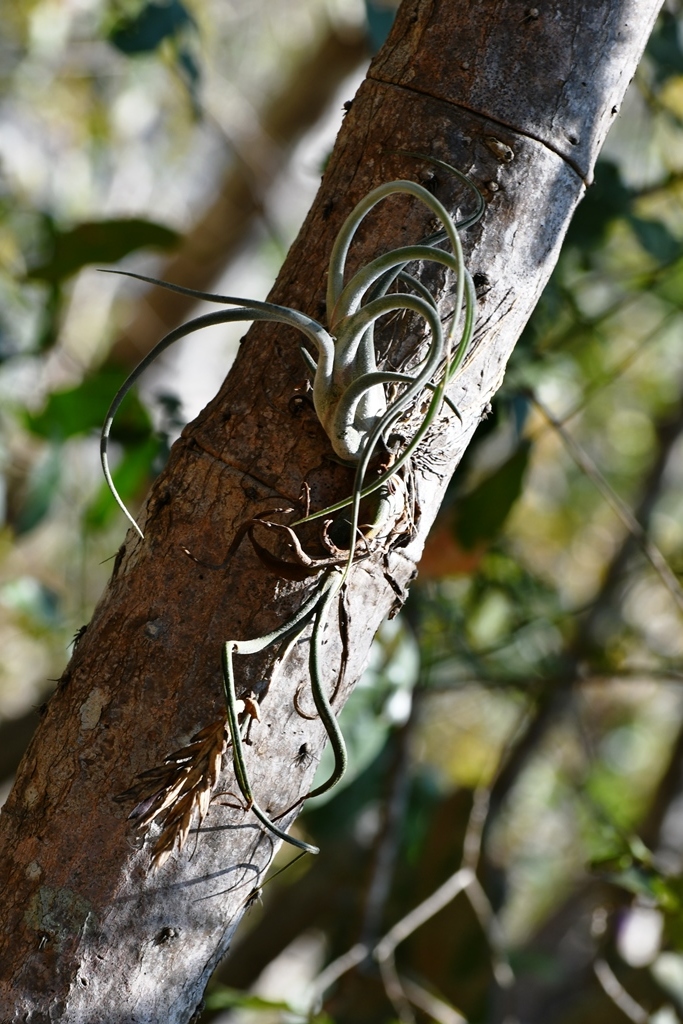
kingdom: Plantae
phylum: Tracheophyta
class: Liliopsida
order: Poales
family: Bromeliaceae
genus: Tillandsia
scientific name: Tillandsia caput-medusae
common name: Octopus plant
